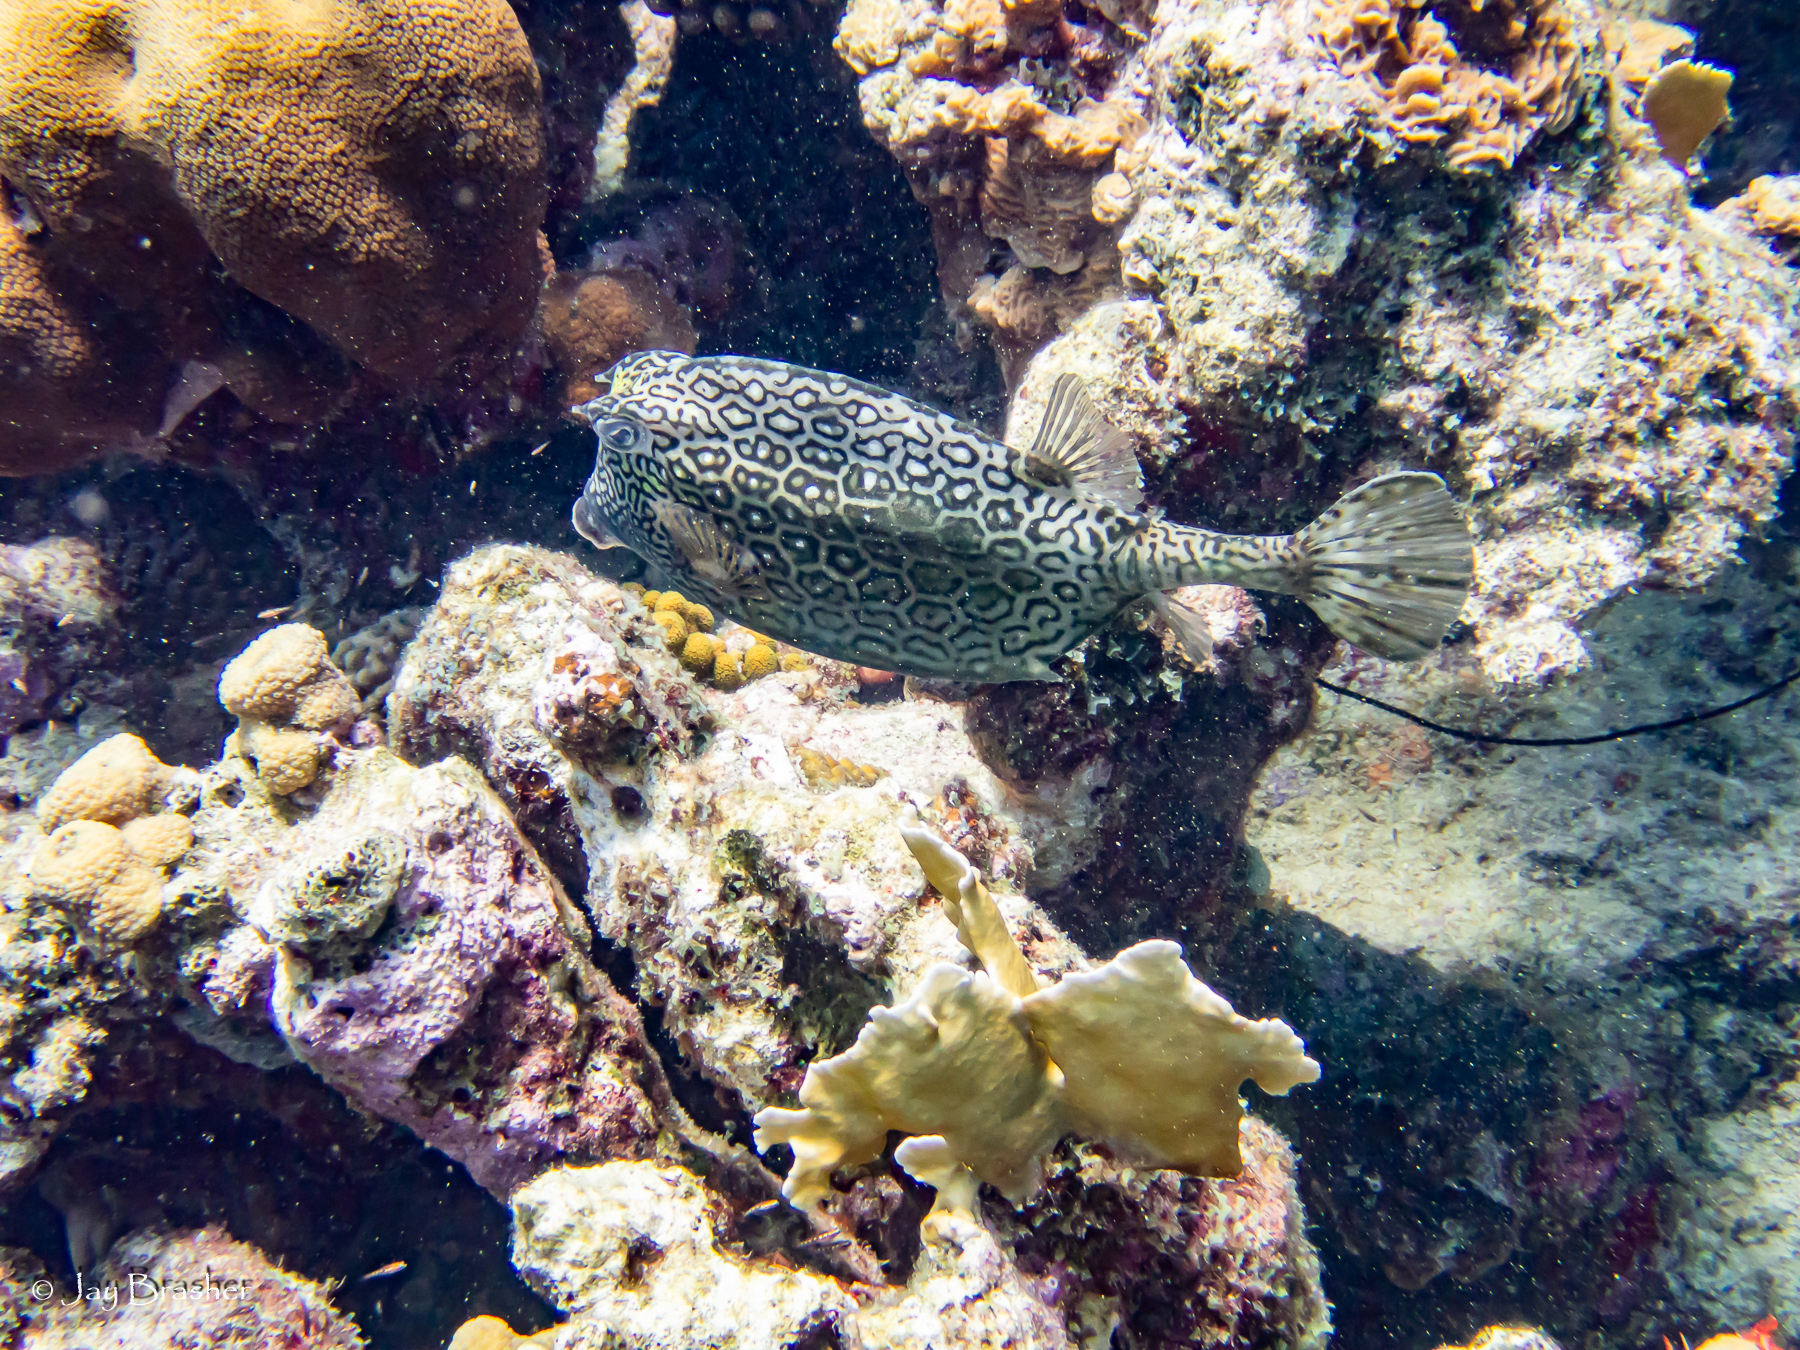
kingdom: Animalia
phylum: Cnidaria
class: Hydrozoa
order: Anthoathecata
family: Milleporidae
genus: Millepora
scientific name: Millepora complanata
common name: Bladed fire coral
